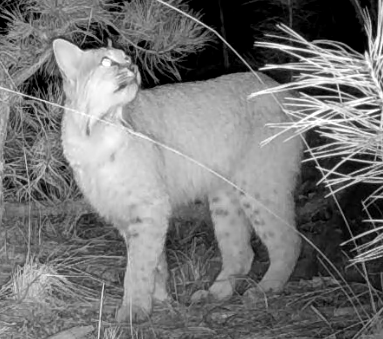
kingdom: Animalia
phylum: Chordata
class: Mammalia
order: Carnivora
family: Felidae
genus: Lynx
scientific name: Lynx rufus
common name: Bobcat
